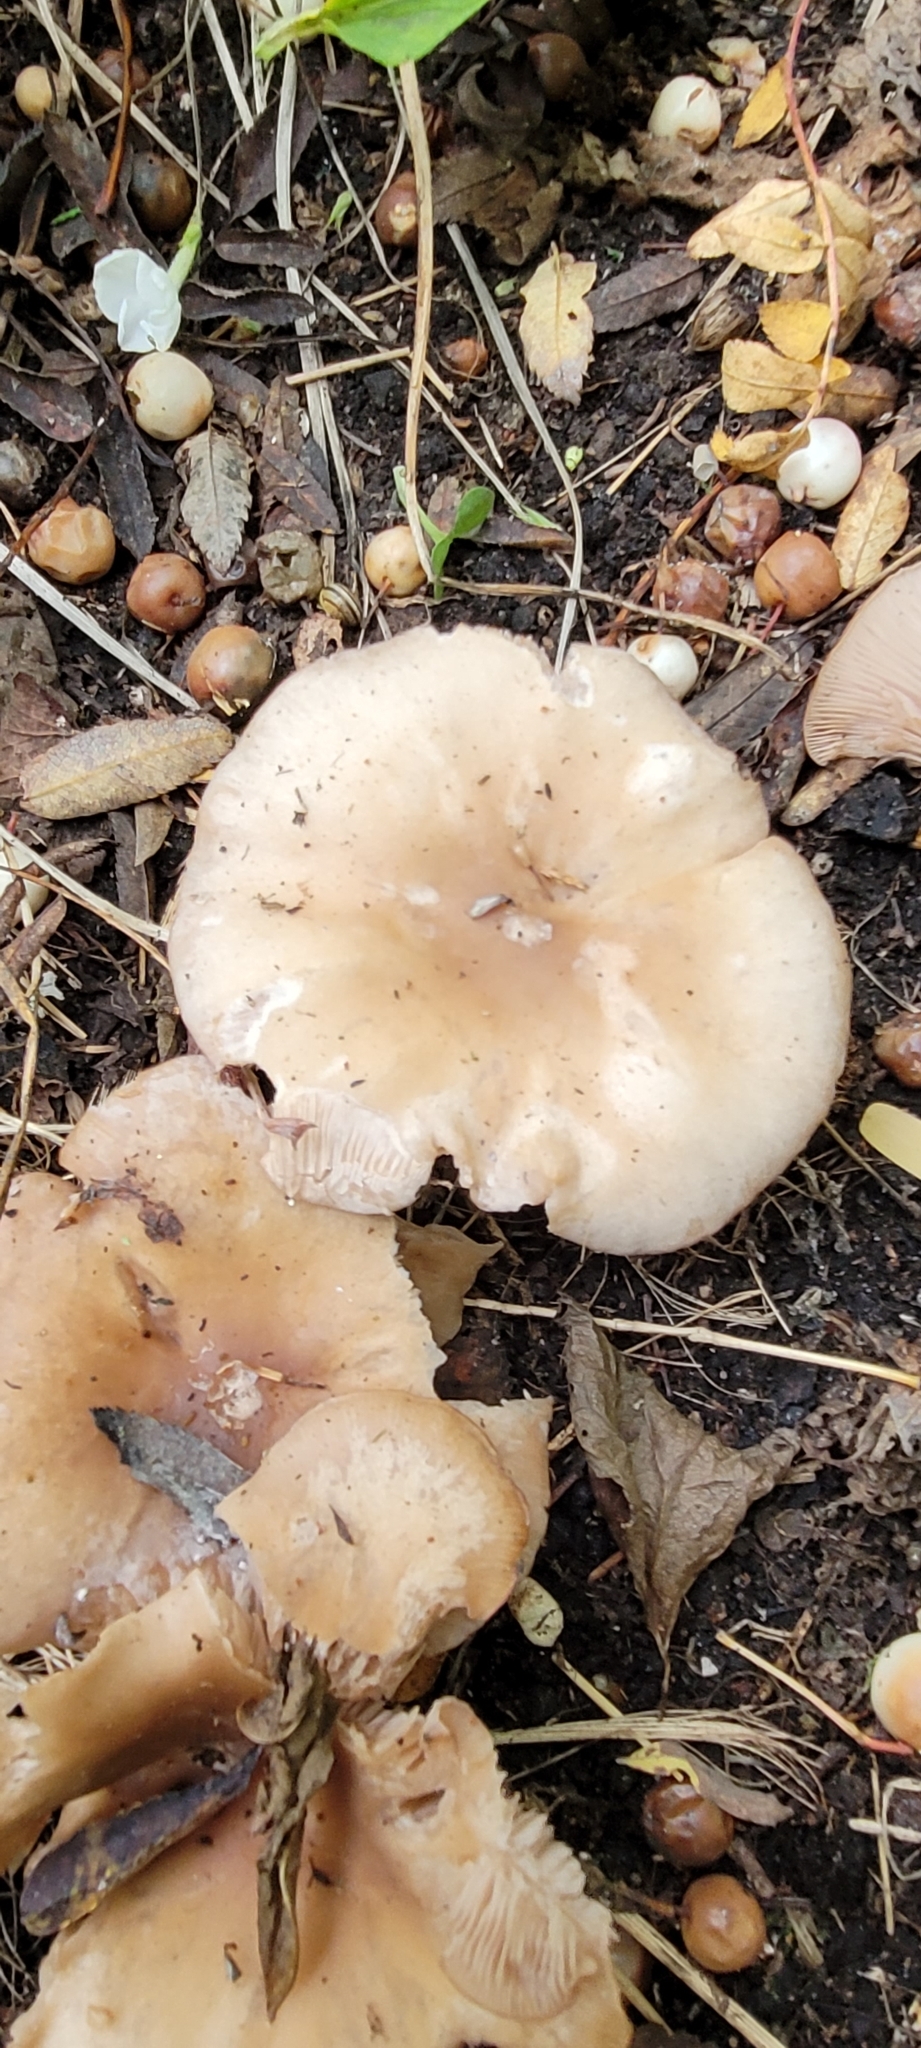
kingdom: Fungi
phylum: Basidiomycota
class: Agaricomycetes
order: Agaricales
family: Tricholomataceae
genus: Collybia
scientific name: Collybia
